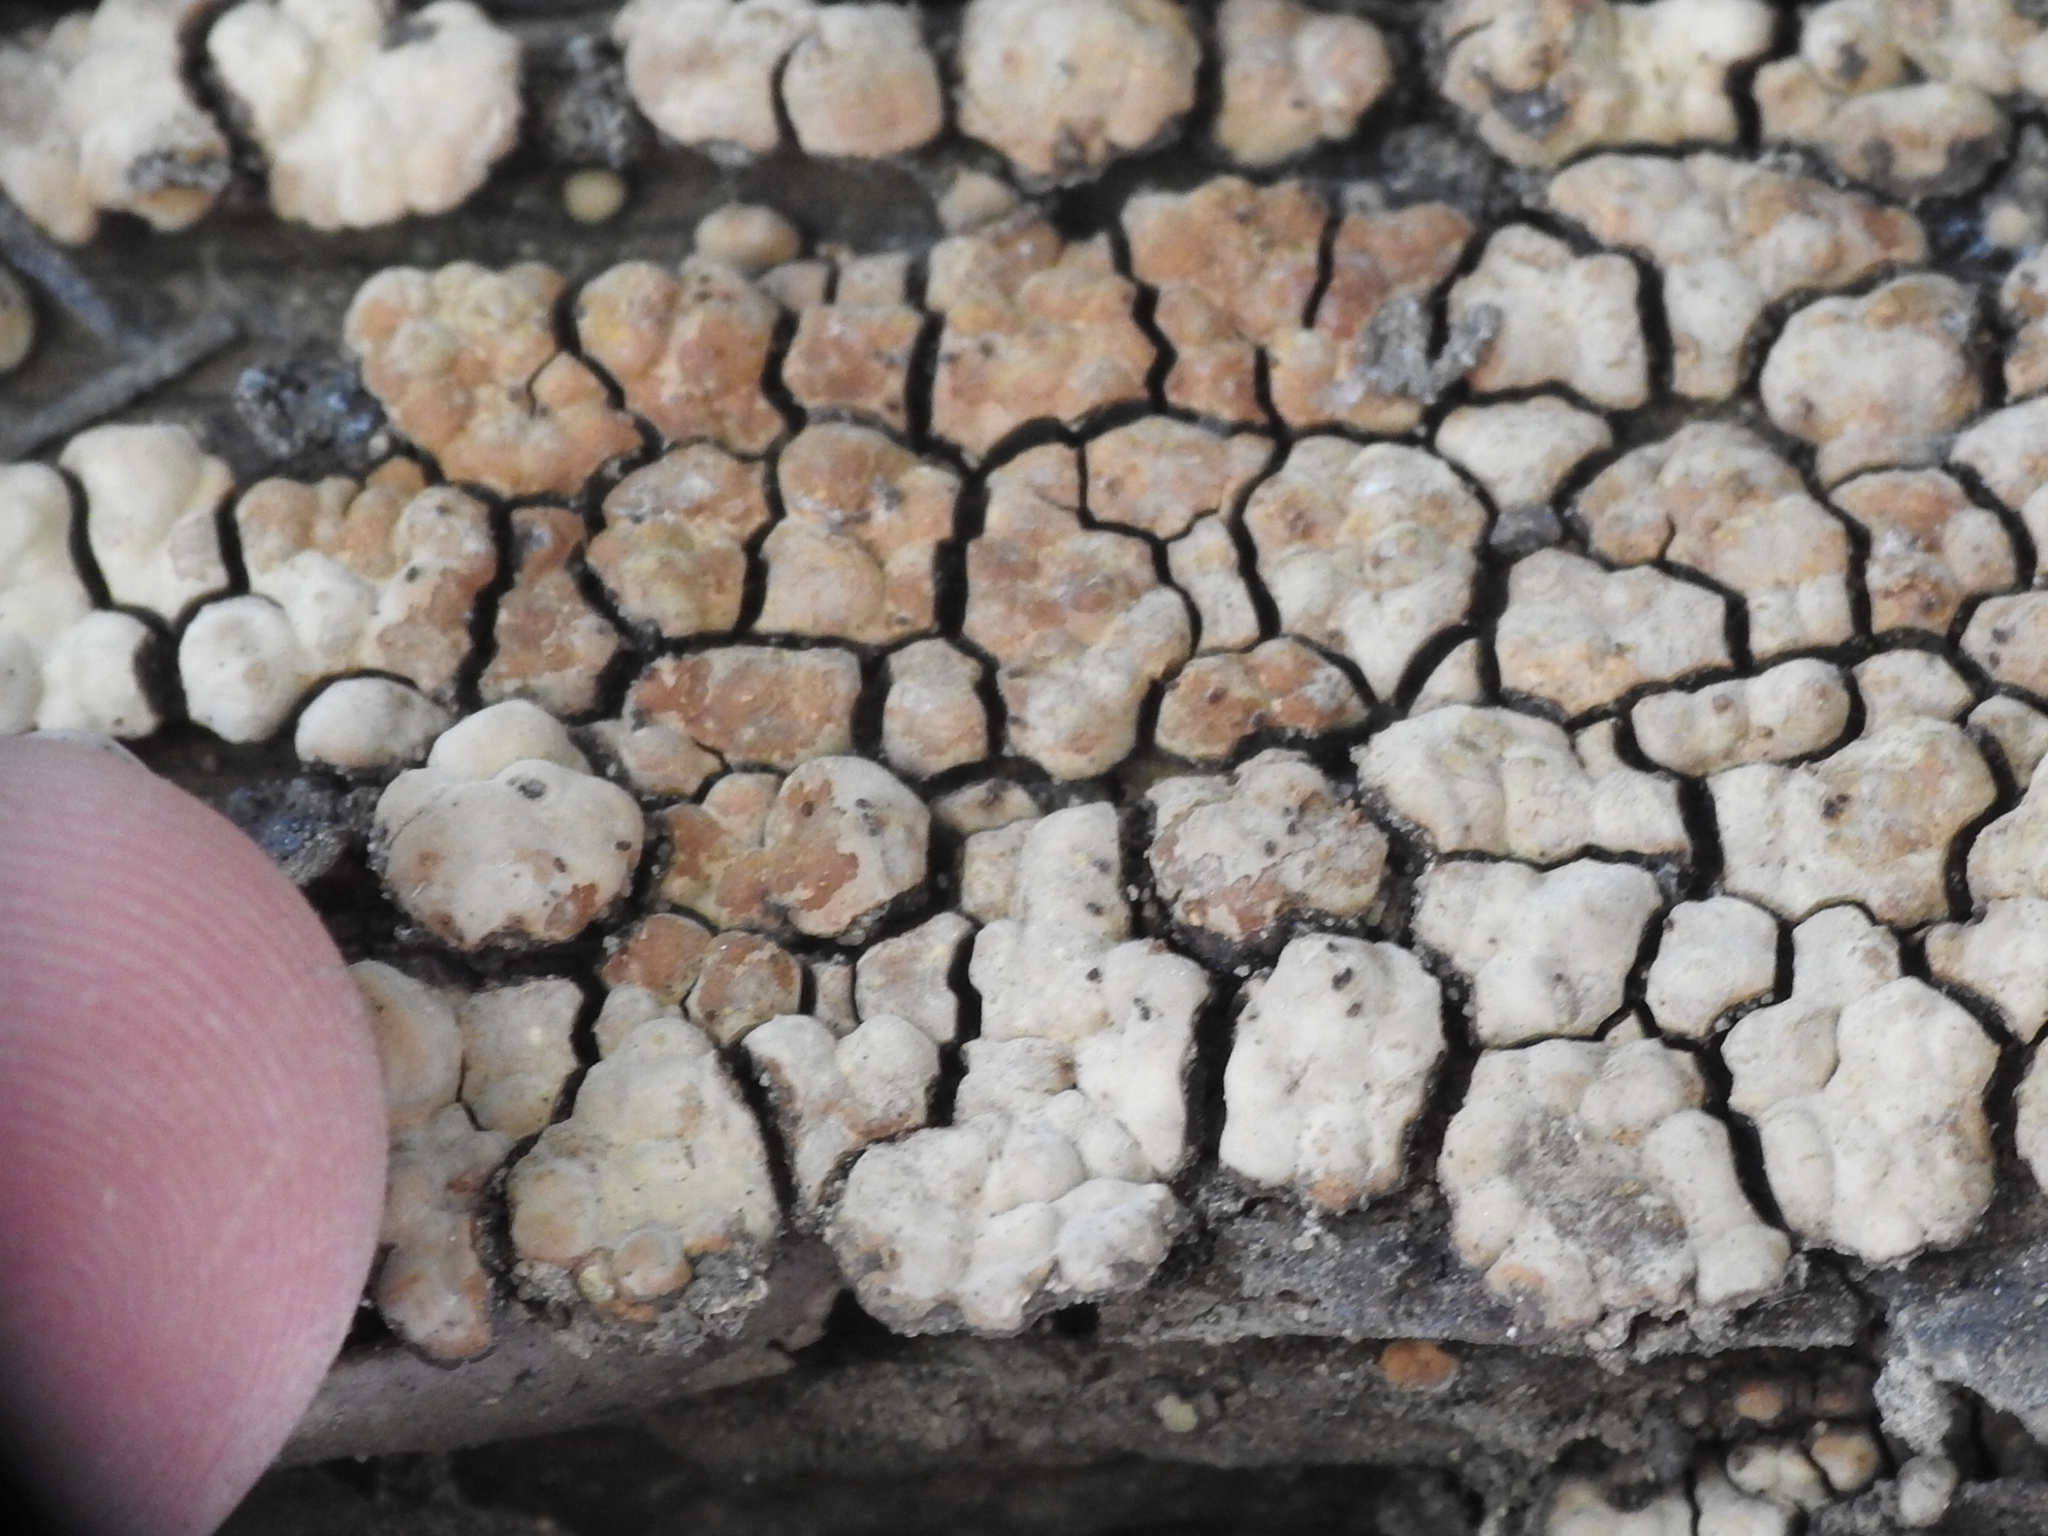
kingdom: Fungi
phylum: Basidiomycota
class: Agaricomycetes
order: Russulales
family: Stereaceae
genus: Xylobolus
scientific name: Xylobolus frustulatus
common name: Ceramic parchment
